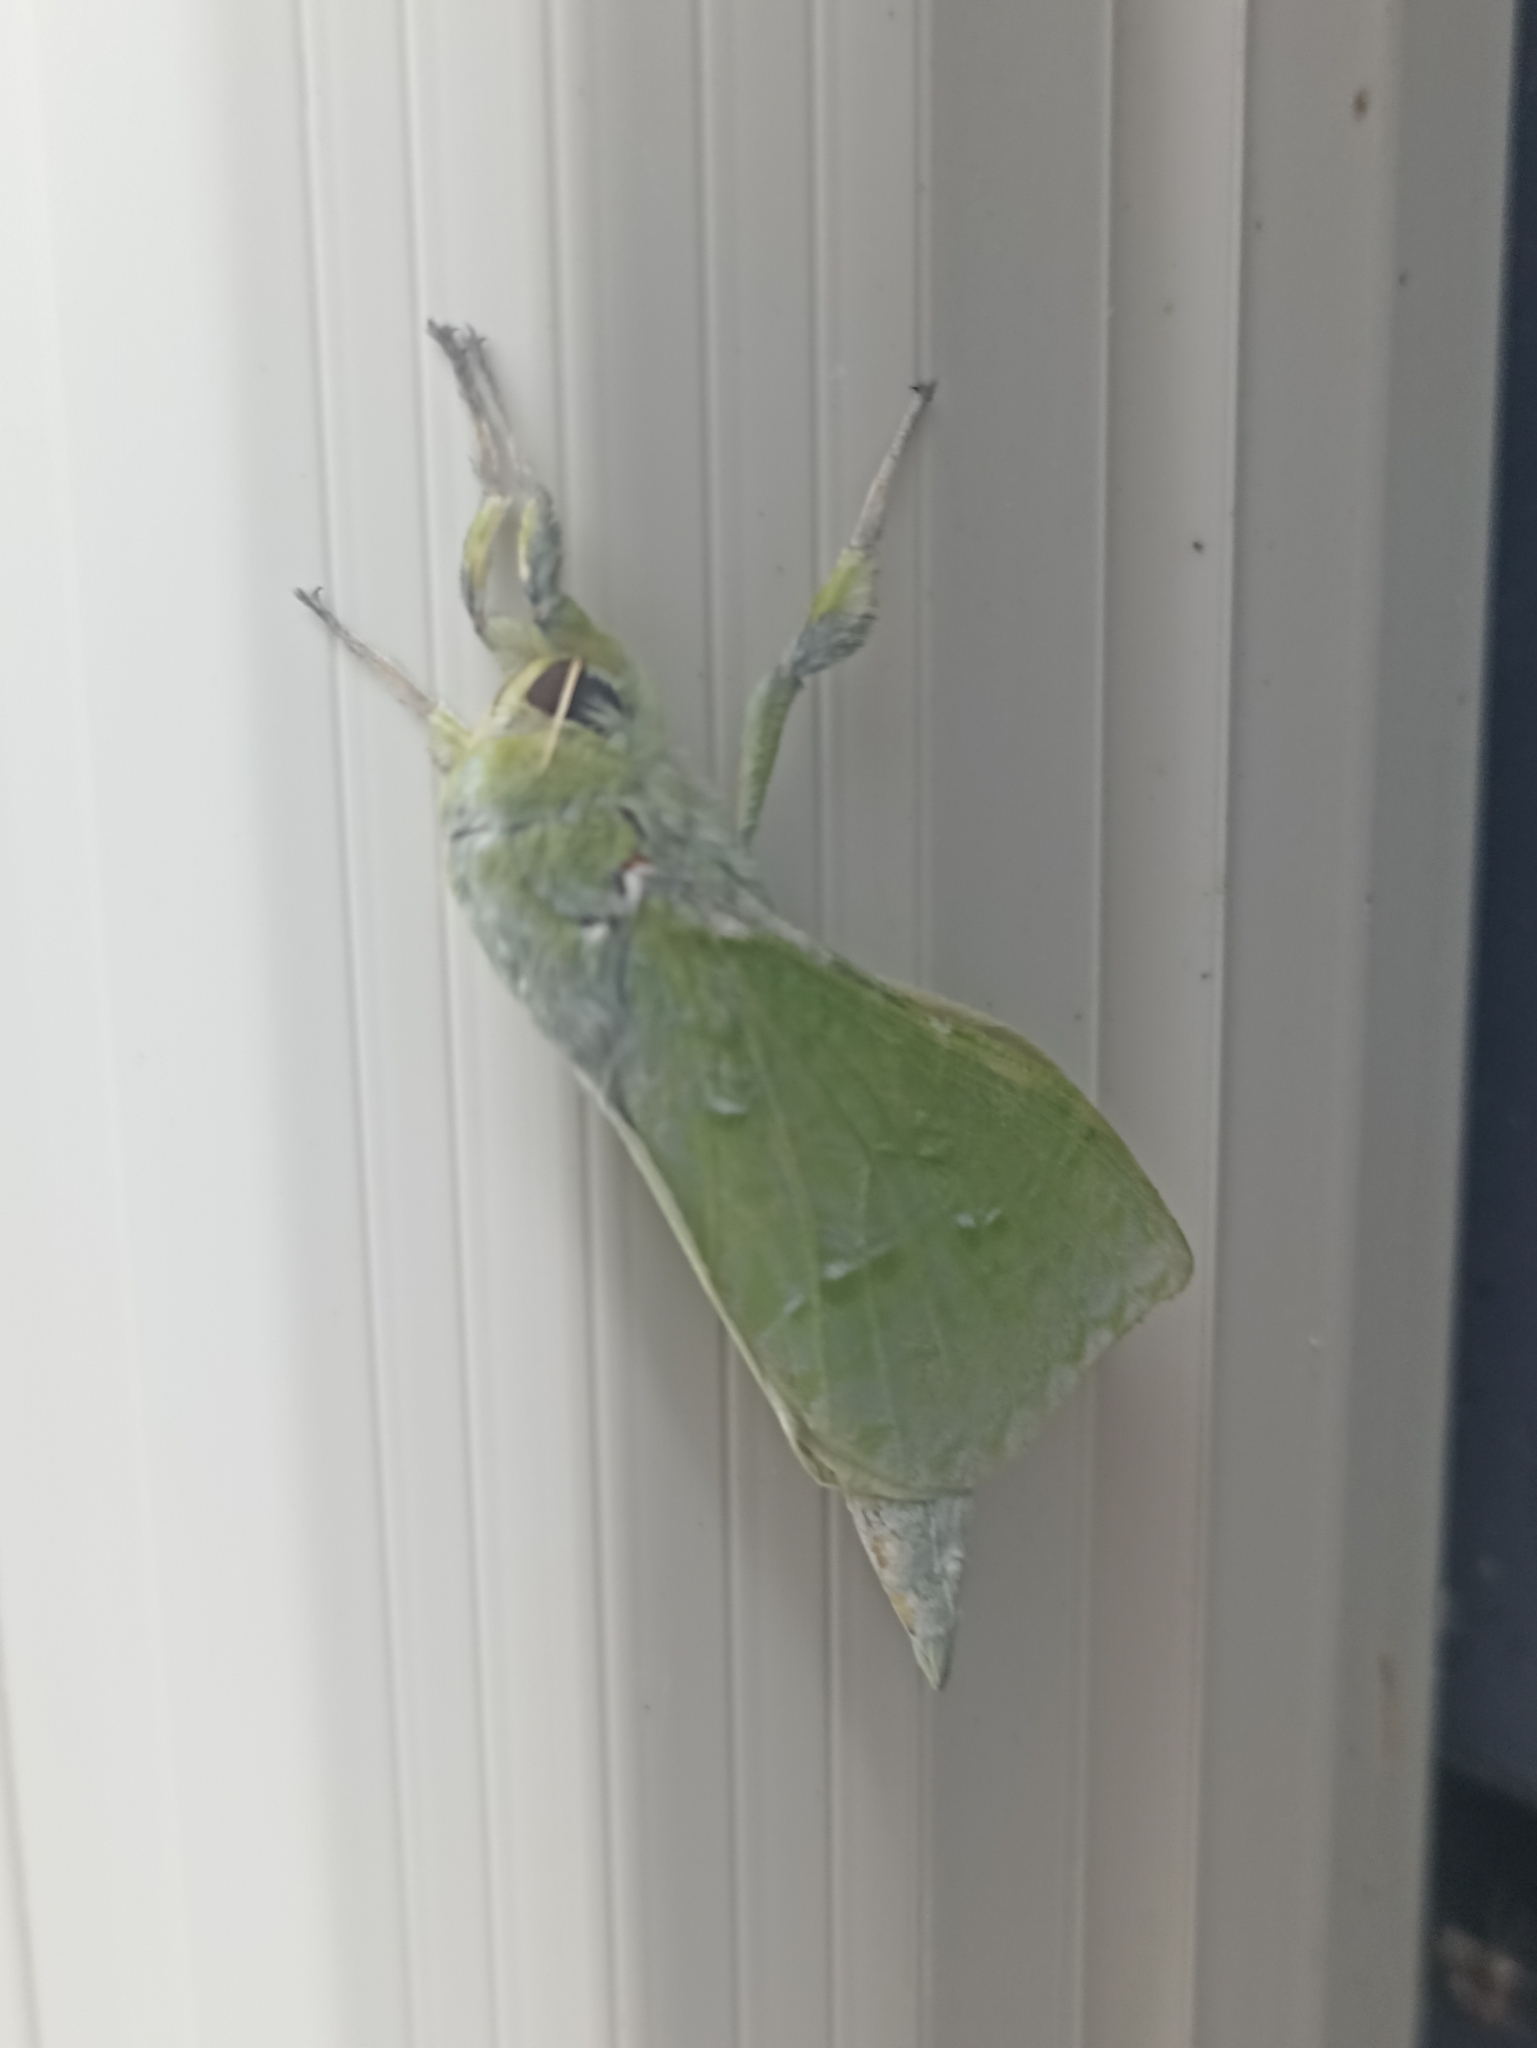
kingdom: Animalia
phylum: Arthropoda
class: Insecta
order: Lepidoptera
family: Hepialidae
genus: Aenetus
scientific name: Aenetus virescens
